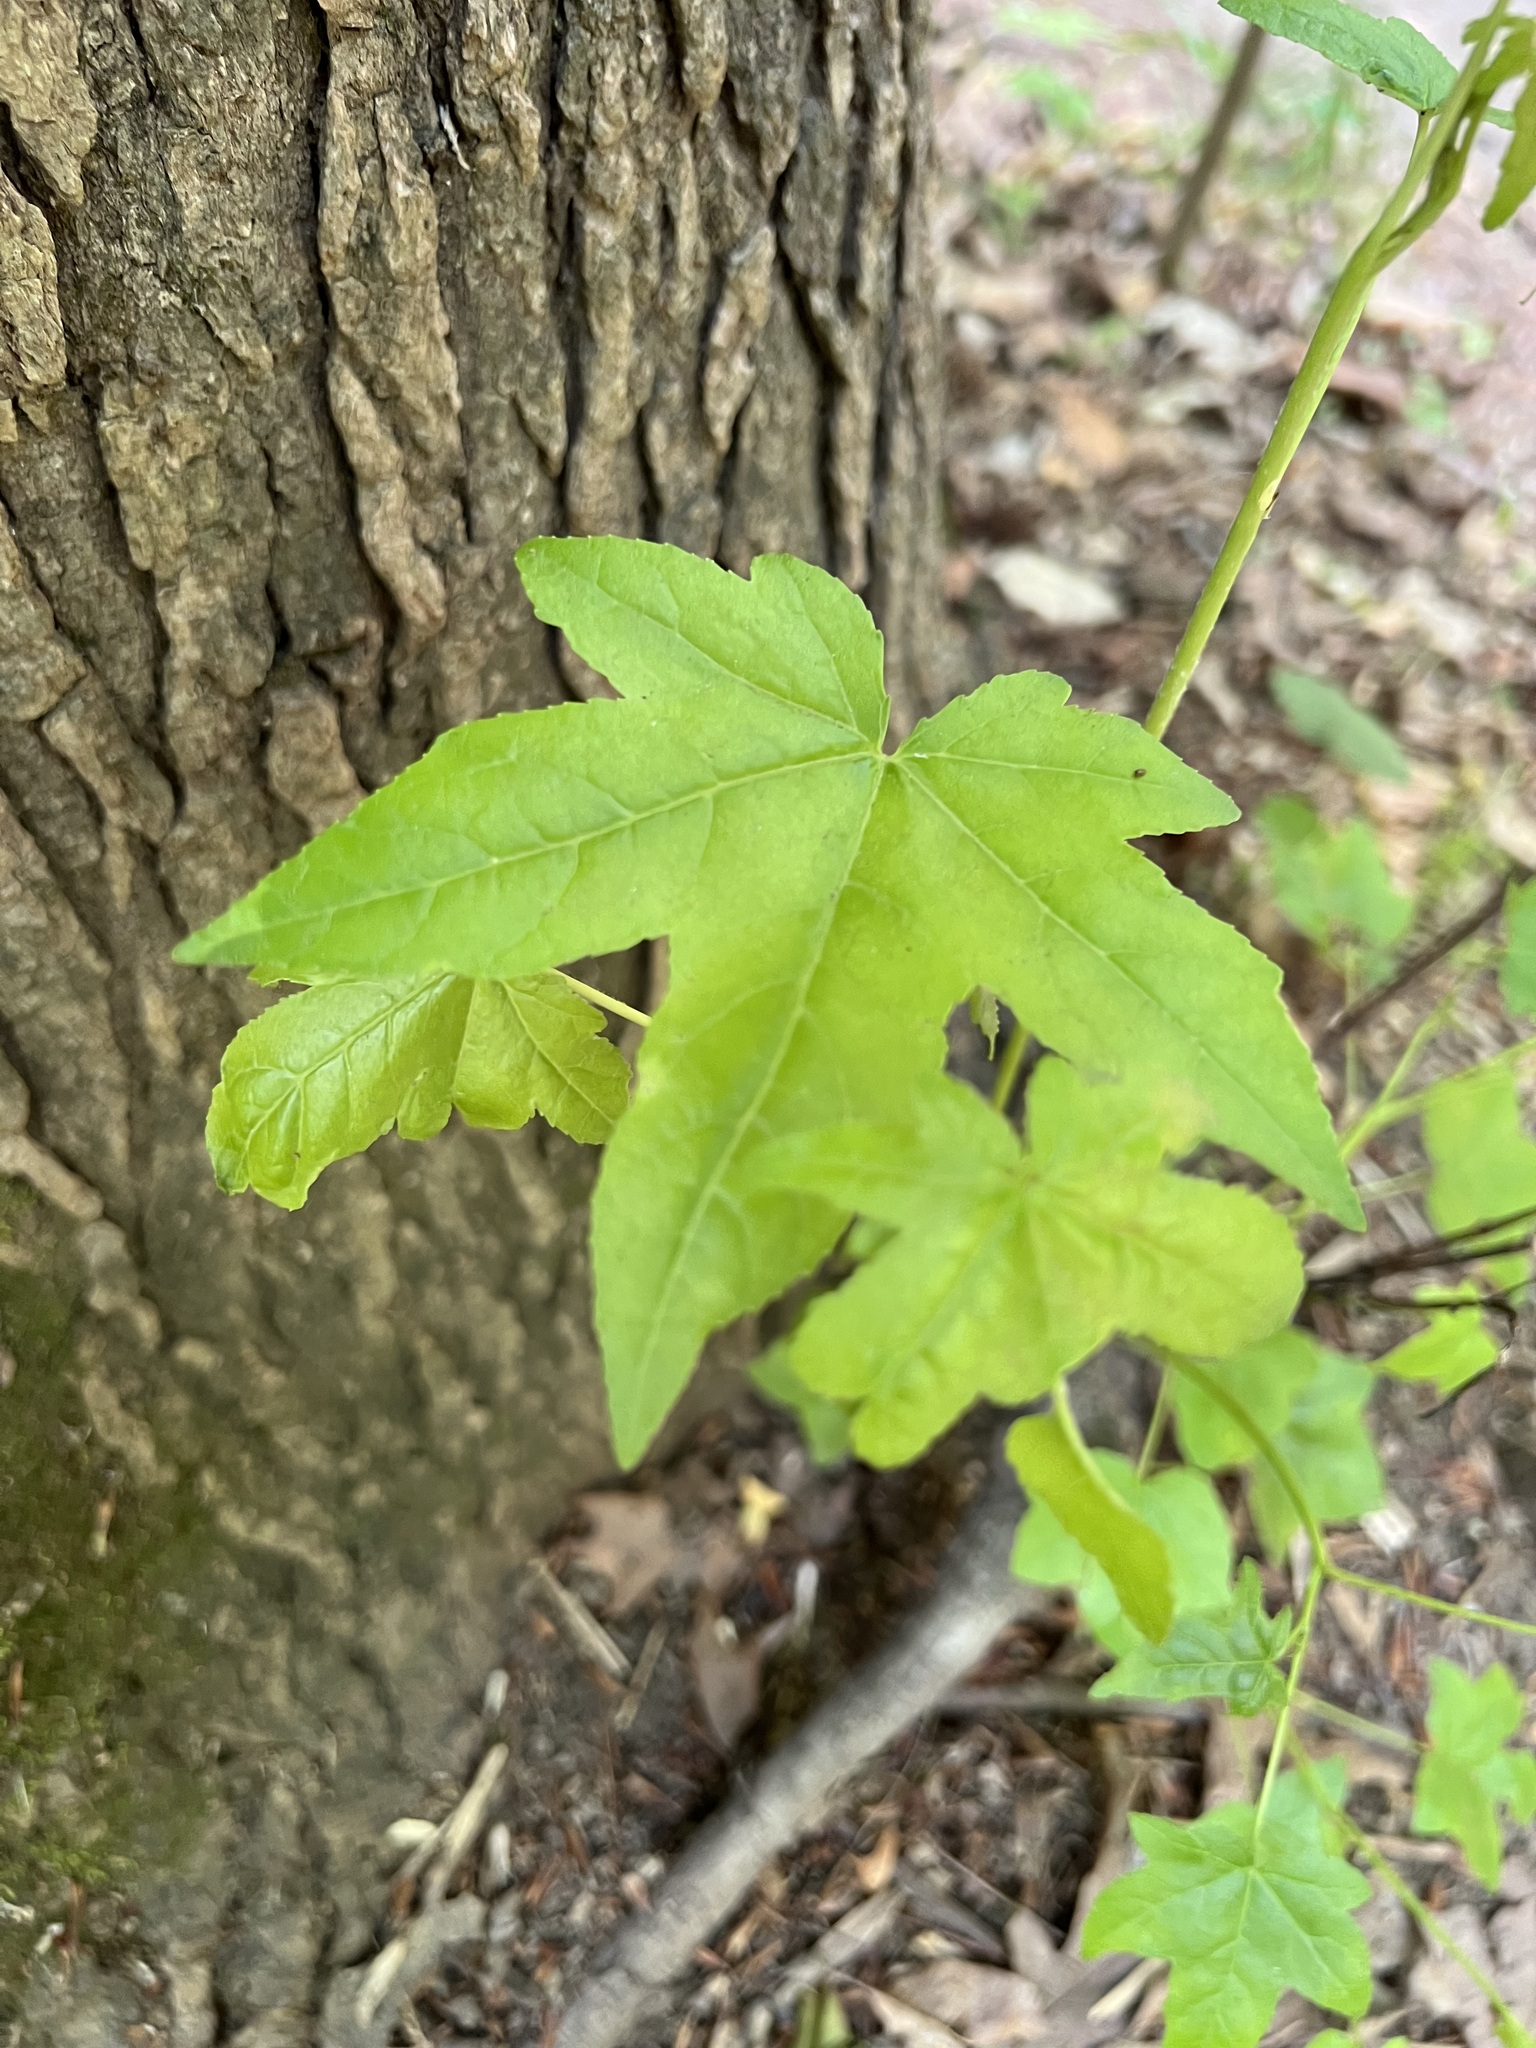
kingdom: Plantae
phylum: Tracheophyta
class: Magnoliopsida
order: Saxifragales
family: Altingiaceae
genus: Liquidambar
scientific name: Liquidambar styraciflua
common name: Sweet gum
